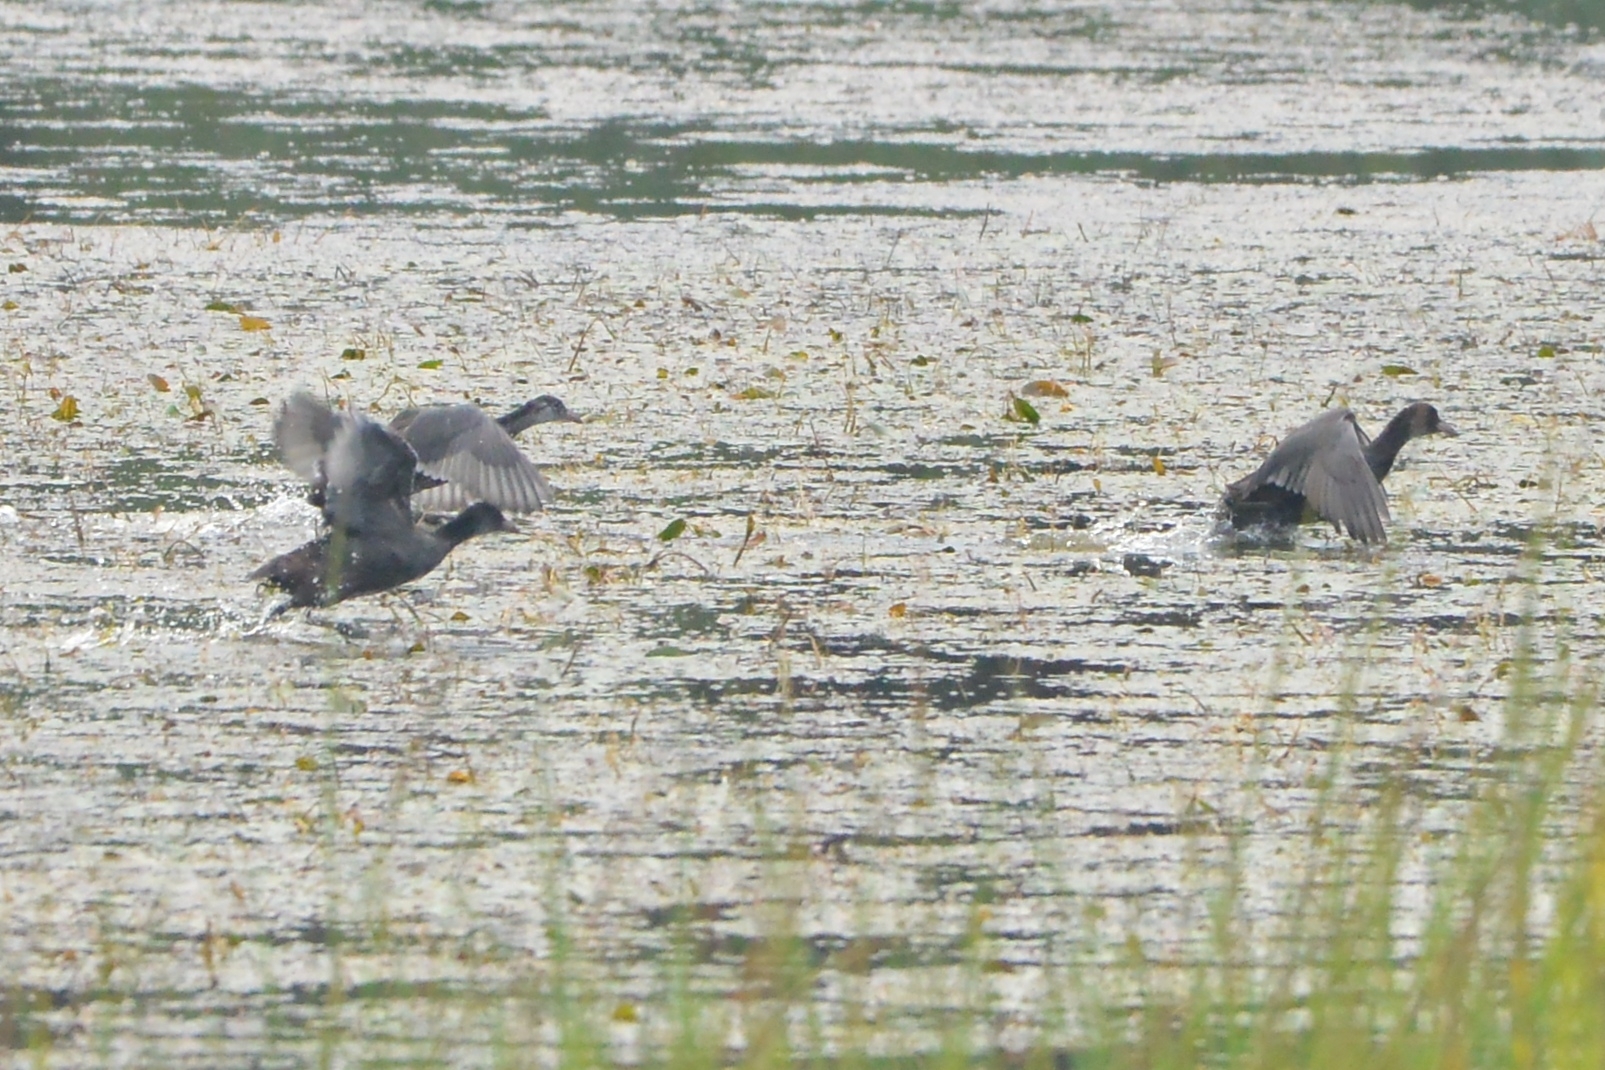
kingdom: Animalia
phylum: Chordata
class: Aves
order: Gruiformes
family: Rallidae
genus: Fulica
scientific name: Fulica atra
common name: Eurasian coot
